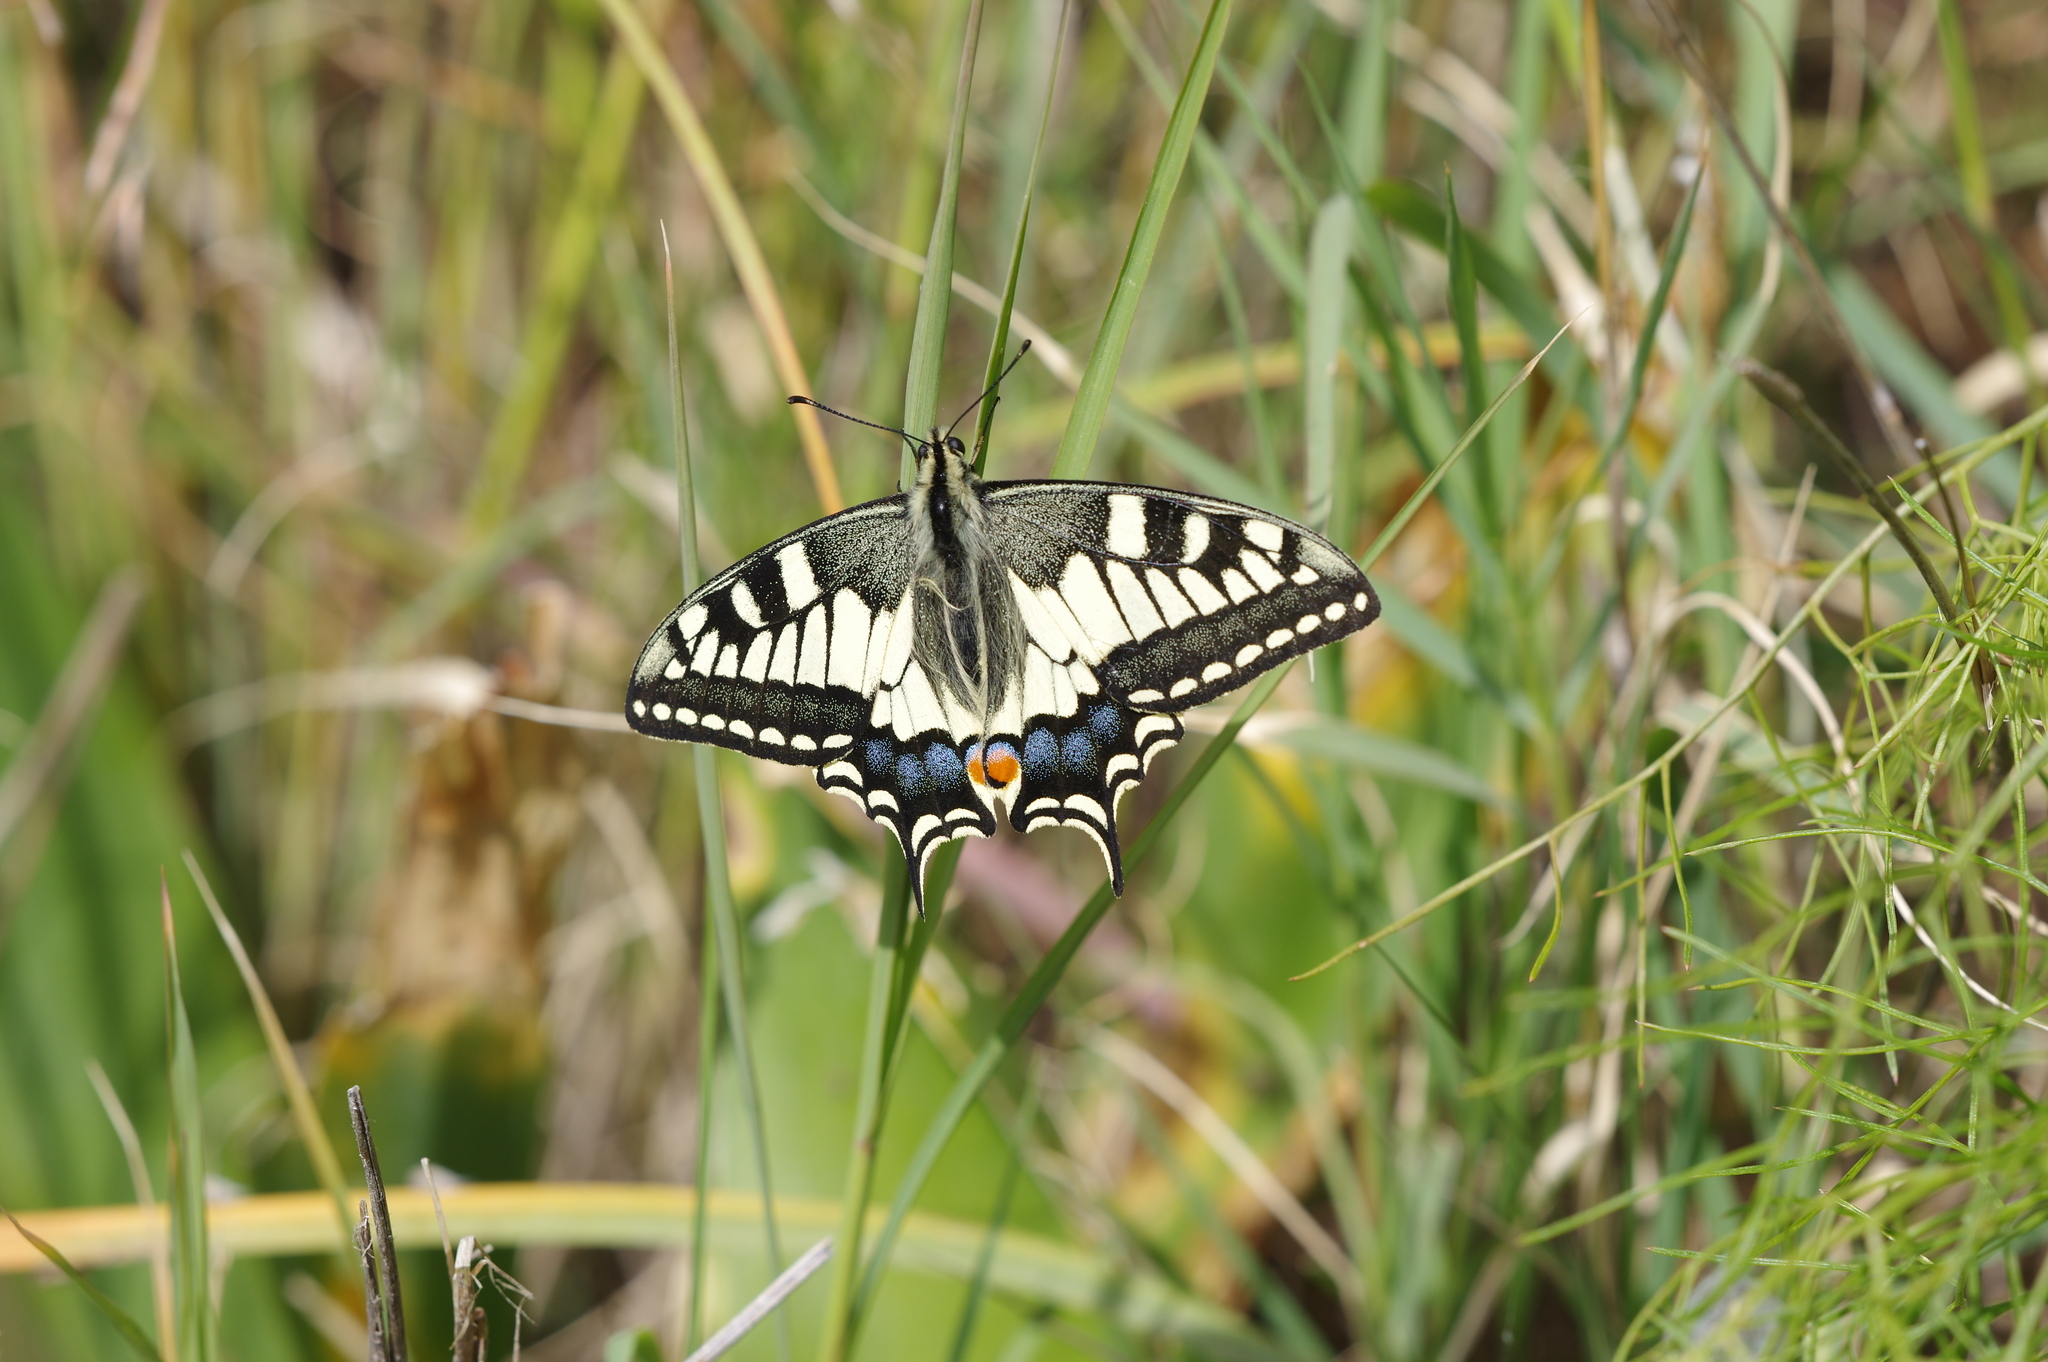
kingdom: Animalia
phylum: Arthropoda
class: Insecta
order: Lepidoptera
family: Papilionidae
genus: Papilio
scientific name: Papilio machaon
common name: Swallowtail
